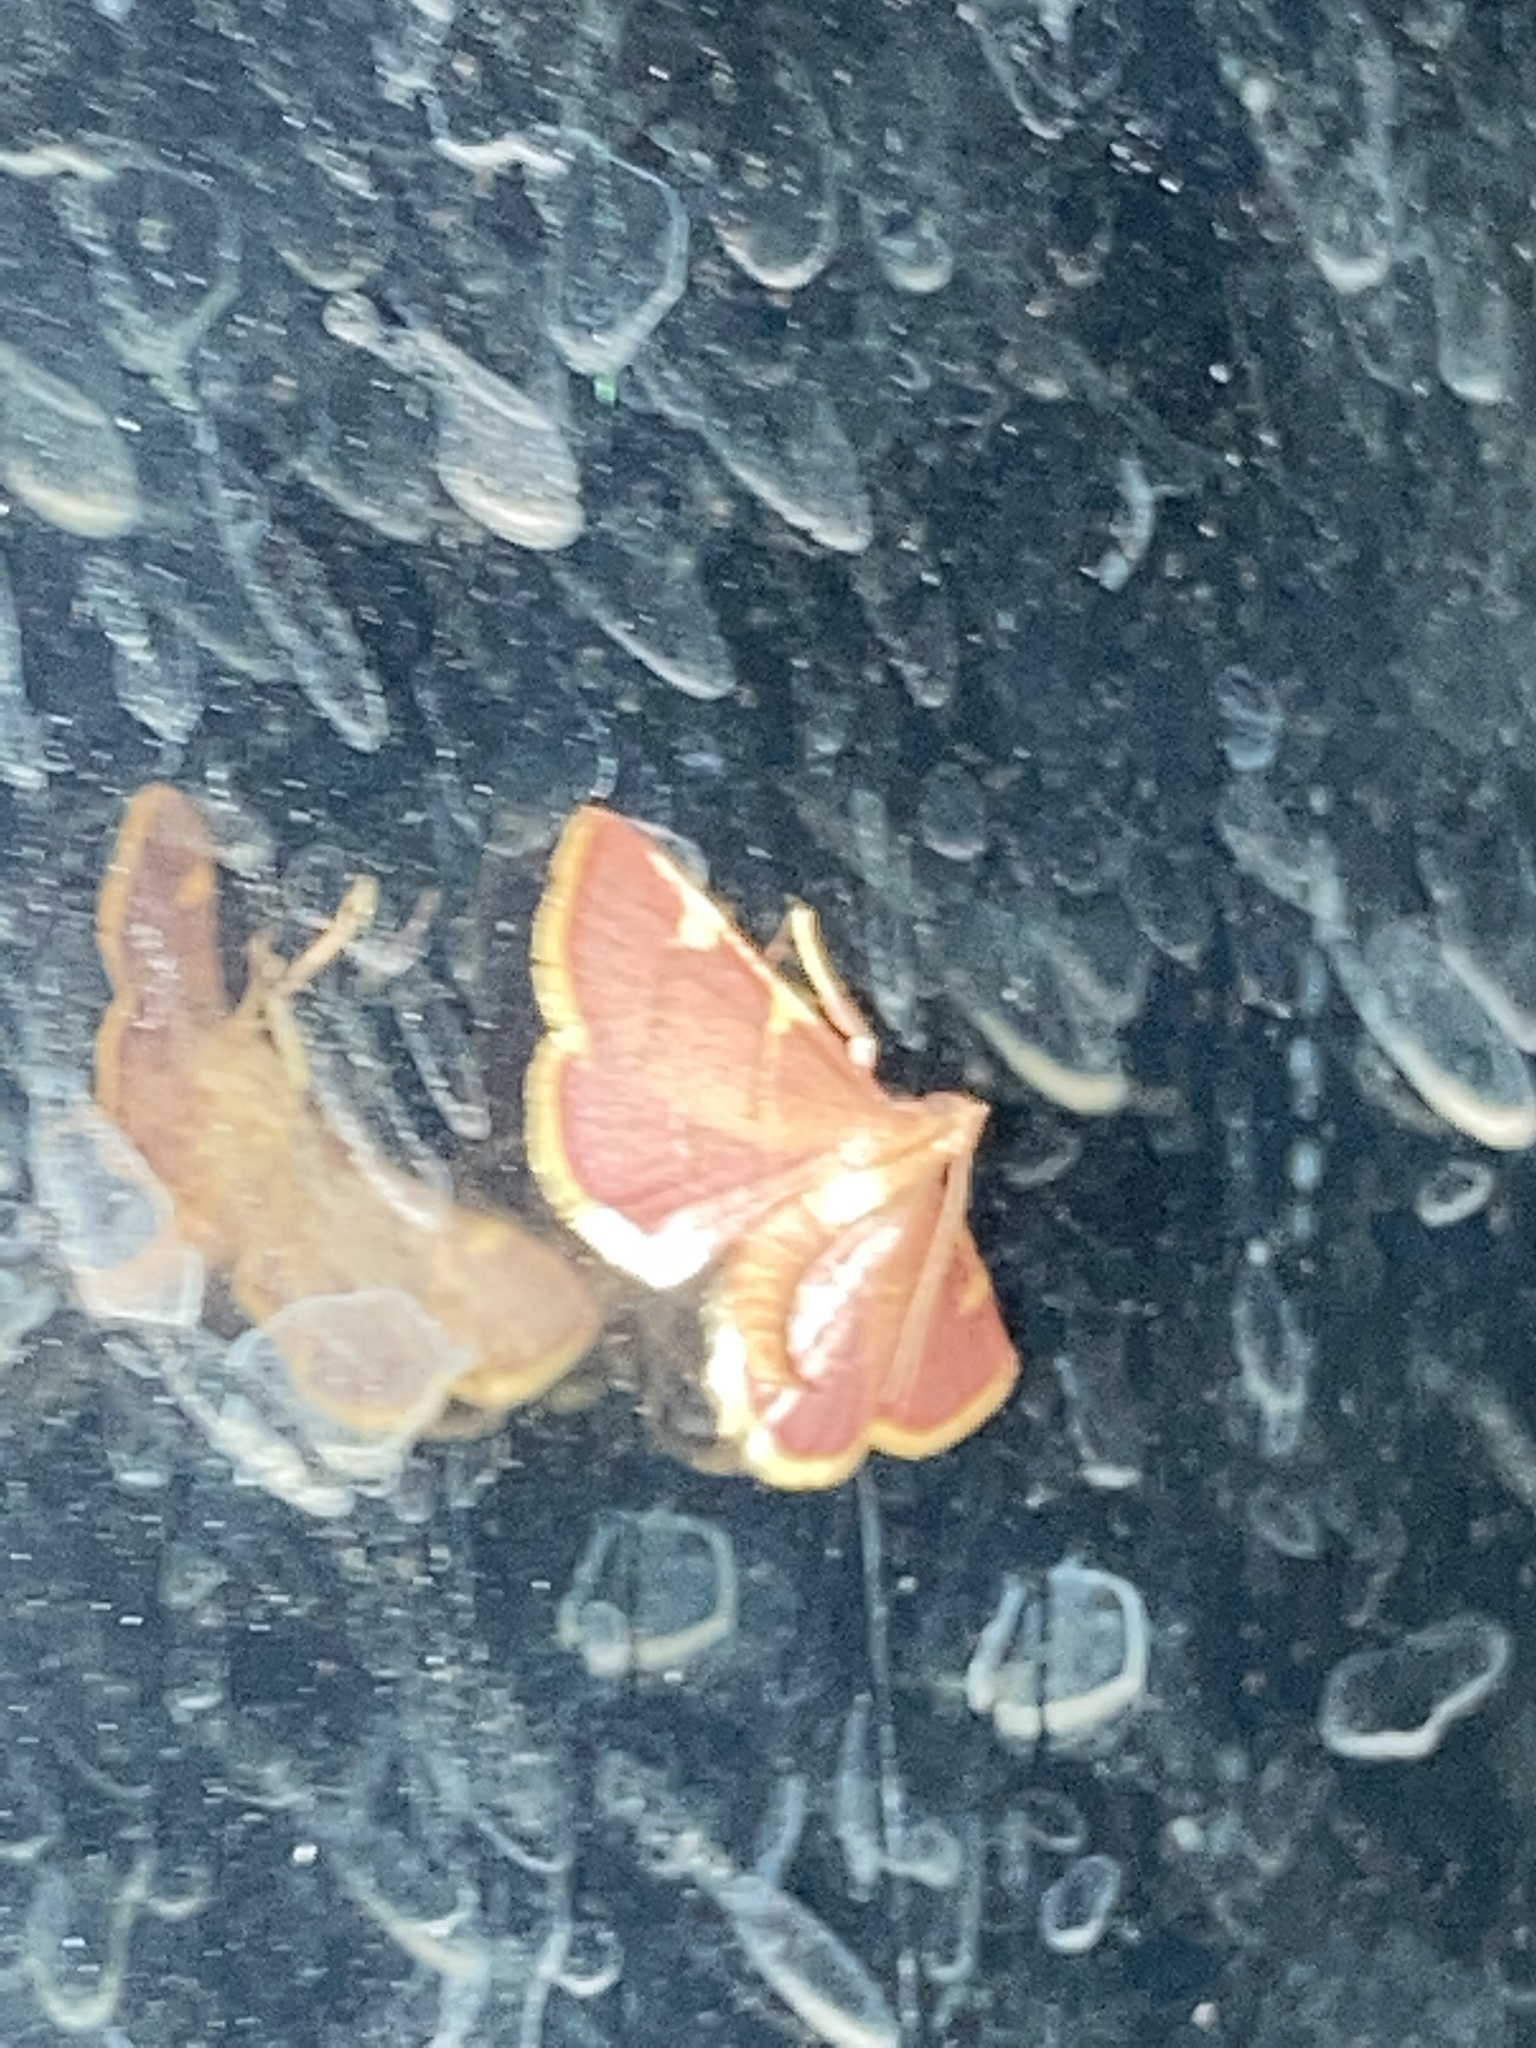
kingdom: Animalia
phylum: Arthropoda
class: Insecta
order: Lepidoptera
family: Pyralidae
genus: Hypsopygia
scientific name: Hypsopygia olinalis
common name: Yellow-fringed dolichomia moth
